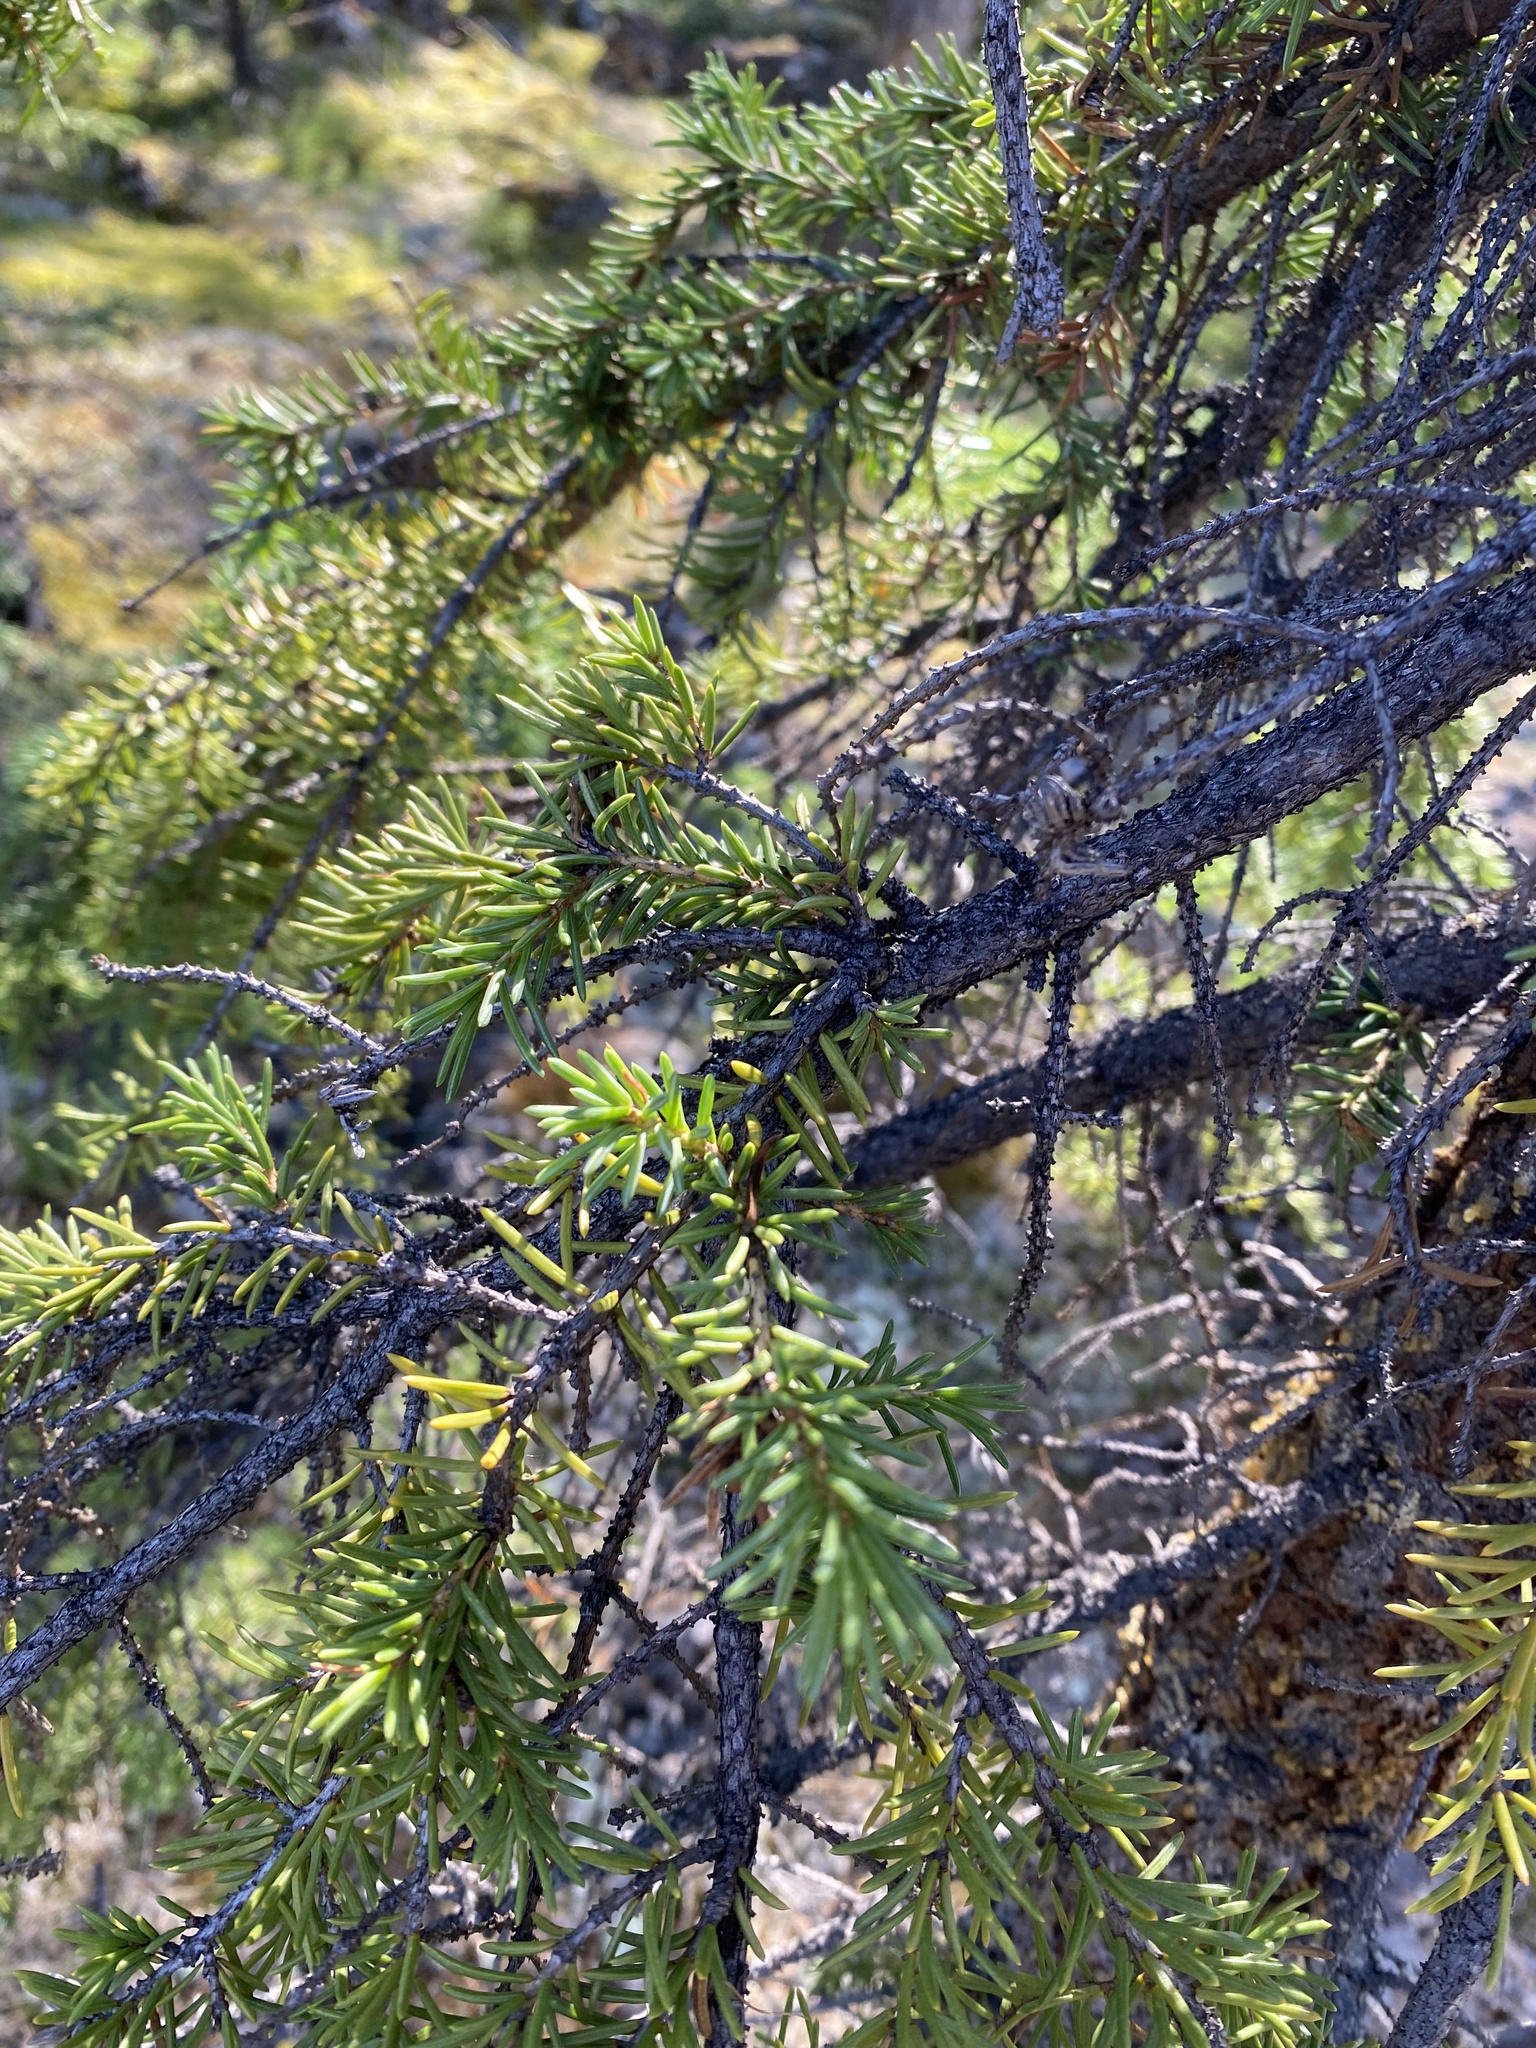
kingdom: Plantae
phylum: Tracheophyta
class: Pinopsida
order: Pinales
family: Pinaceae
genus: Picea
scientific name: Picea obovata
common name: Siberian spruce
